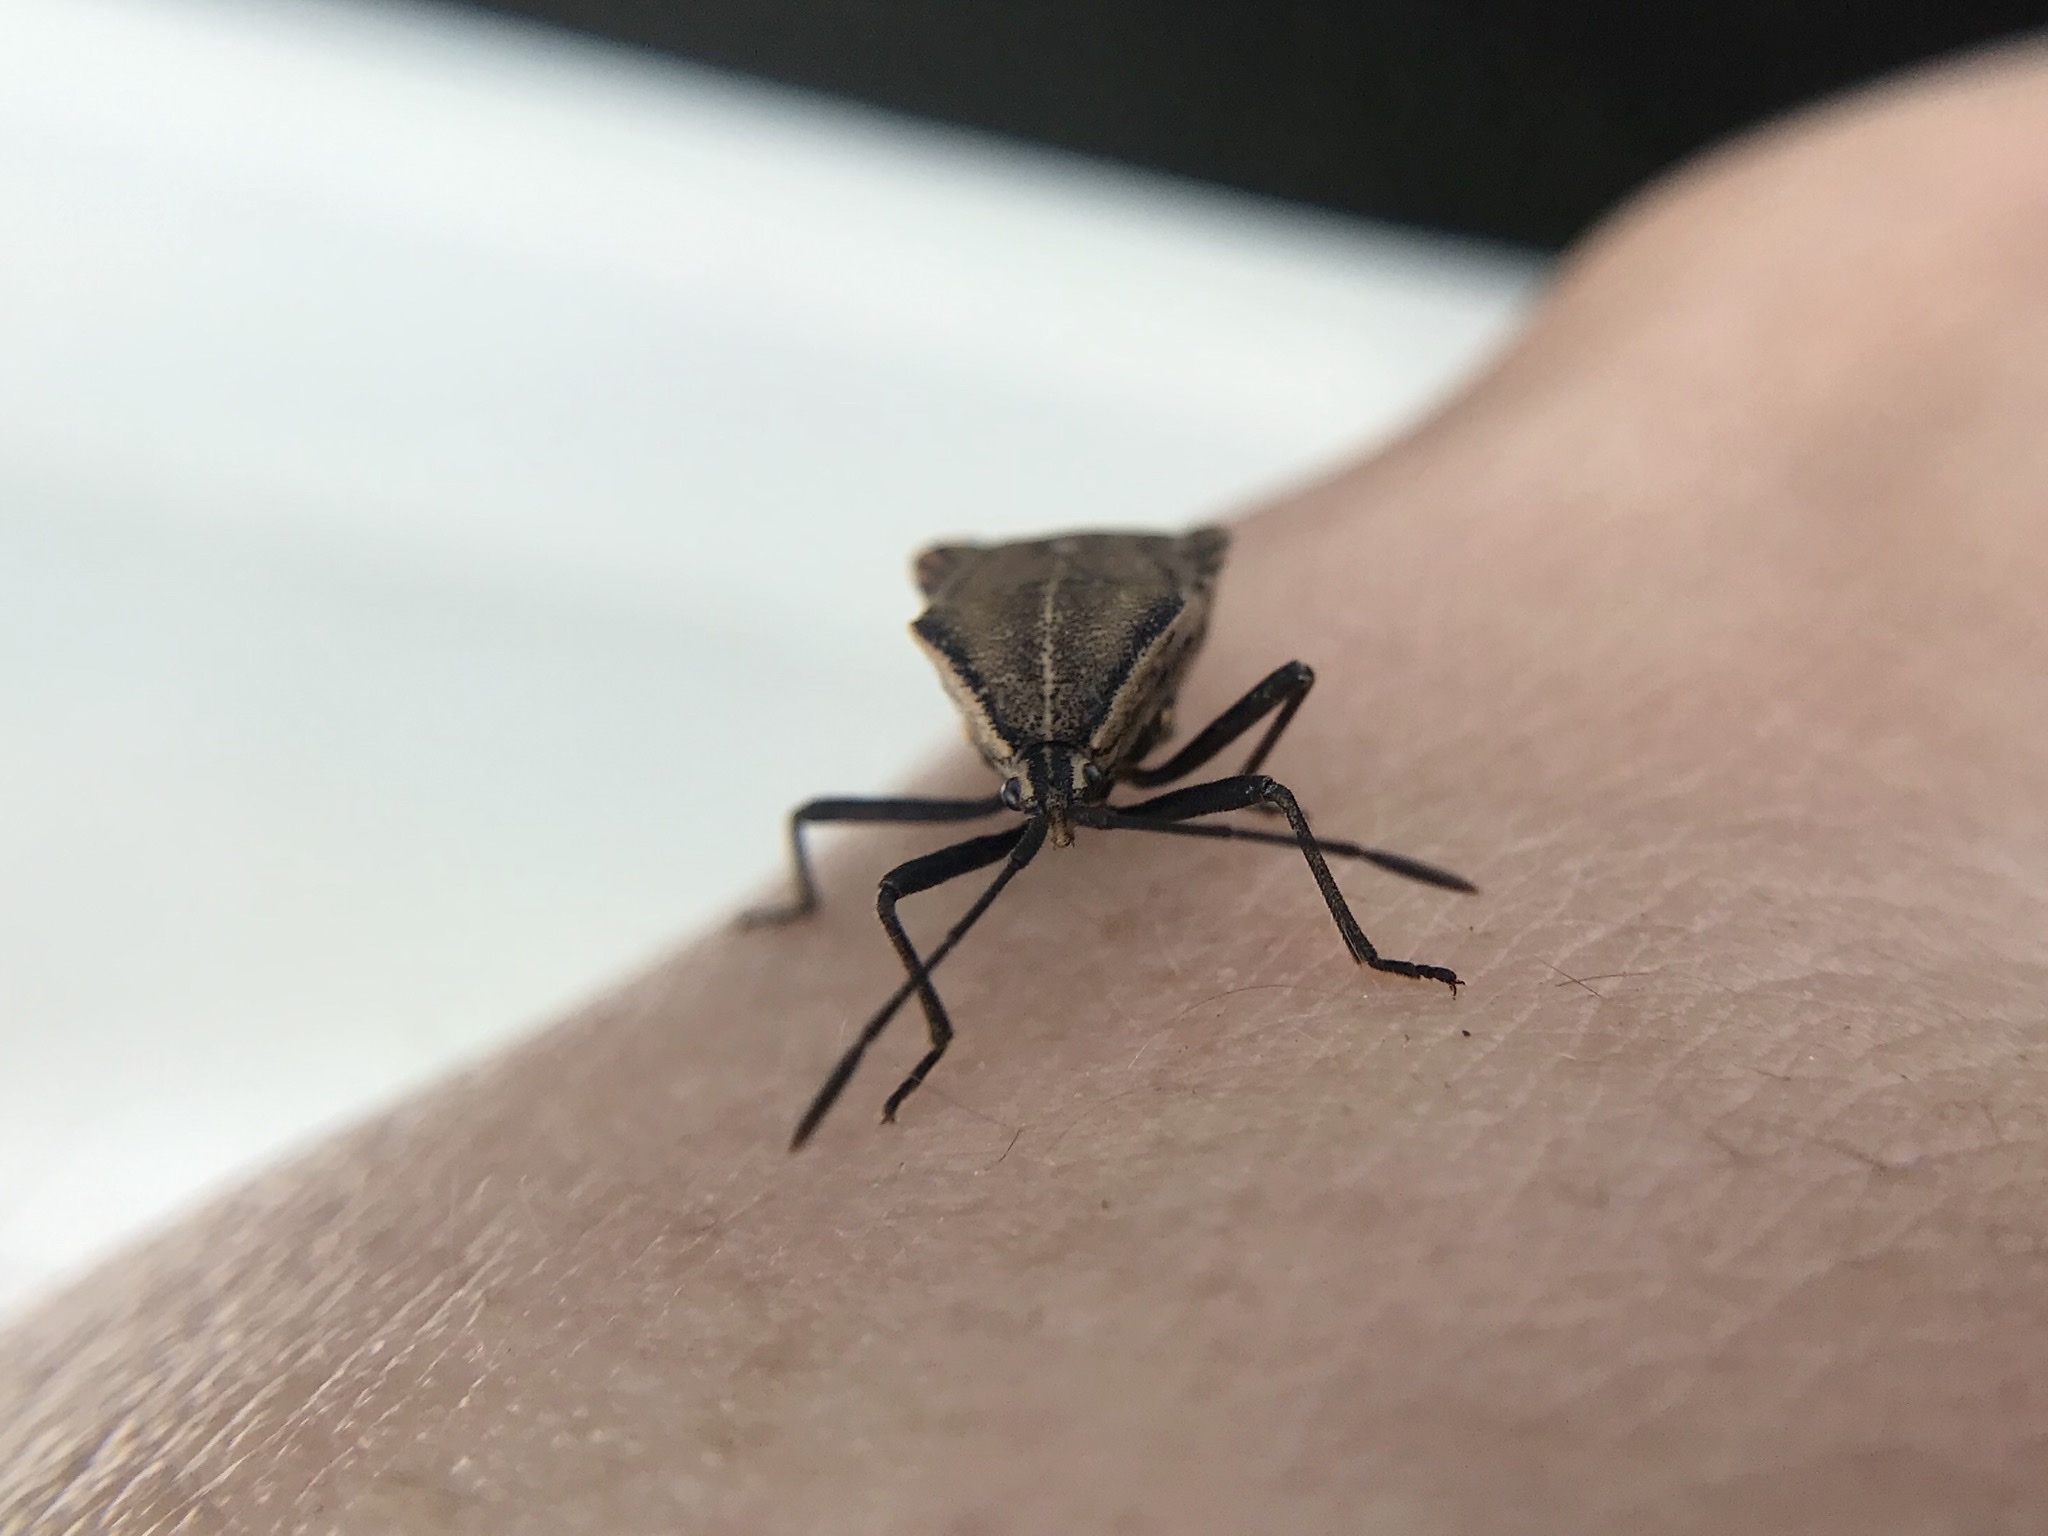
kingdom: Animalia
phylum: Arthropoda
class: Insecta
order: Hemiptera
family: Coreidae
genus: Cimolus
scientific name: Cimolus luteus
